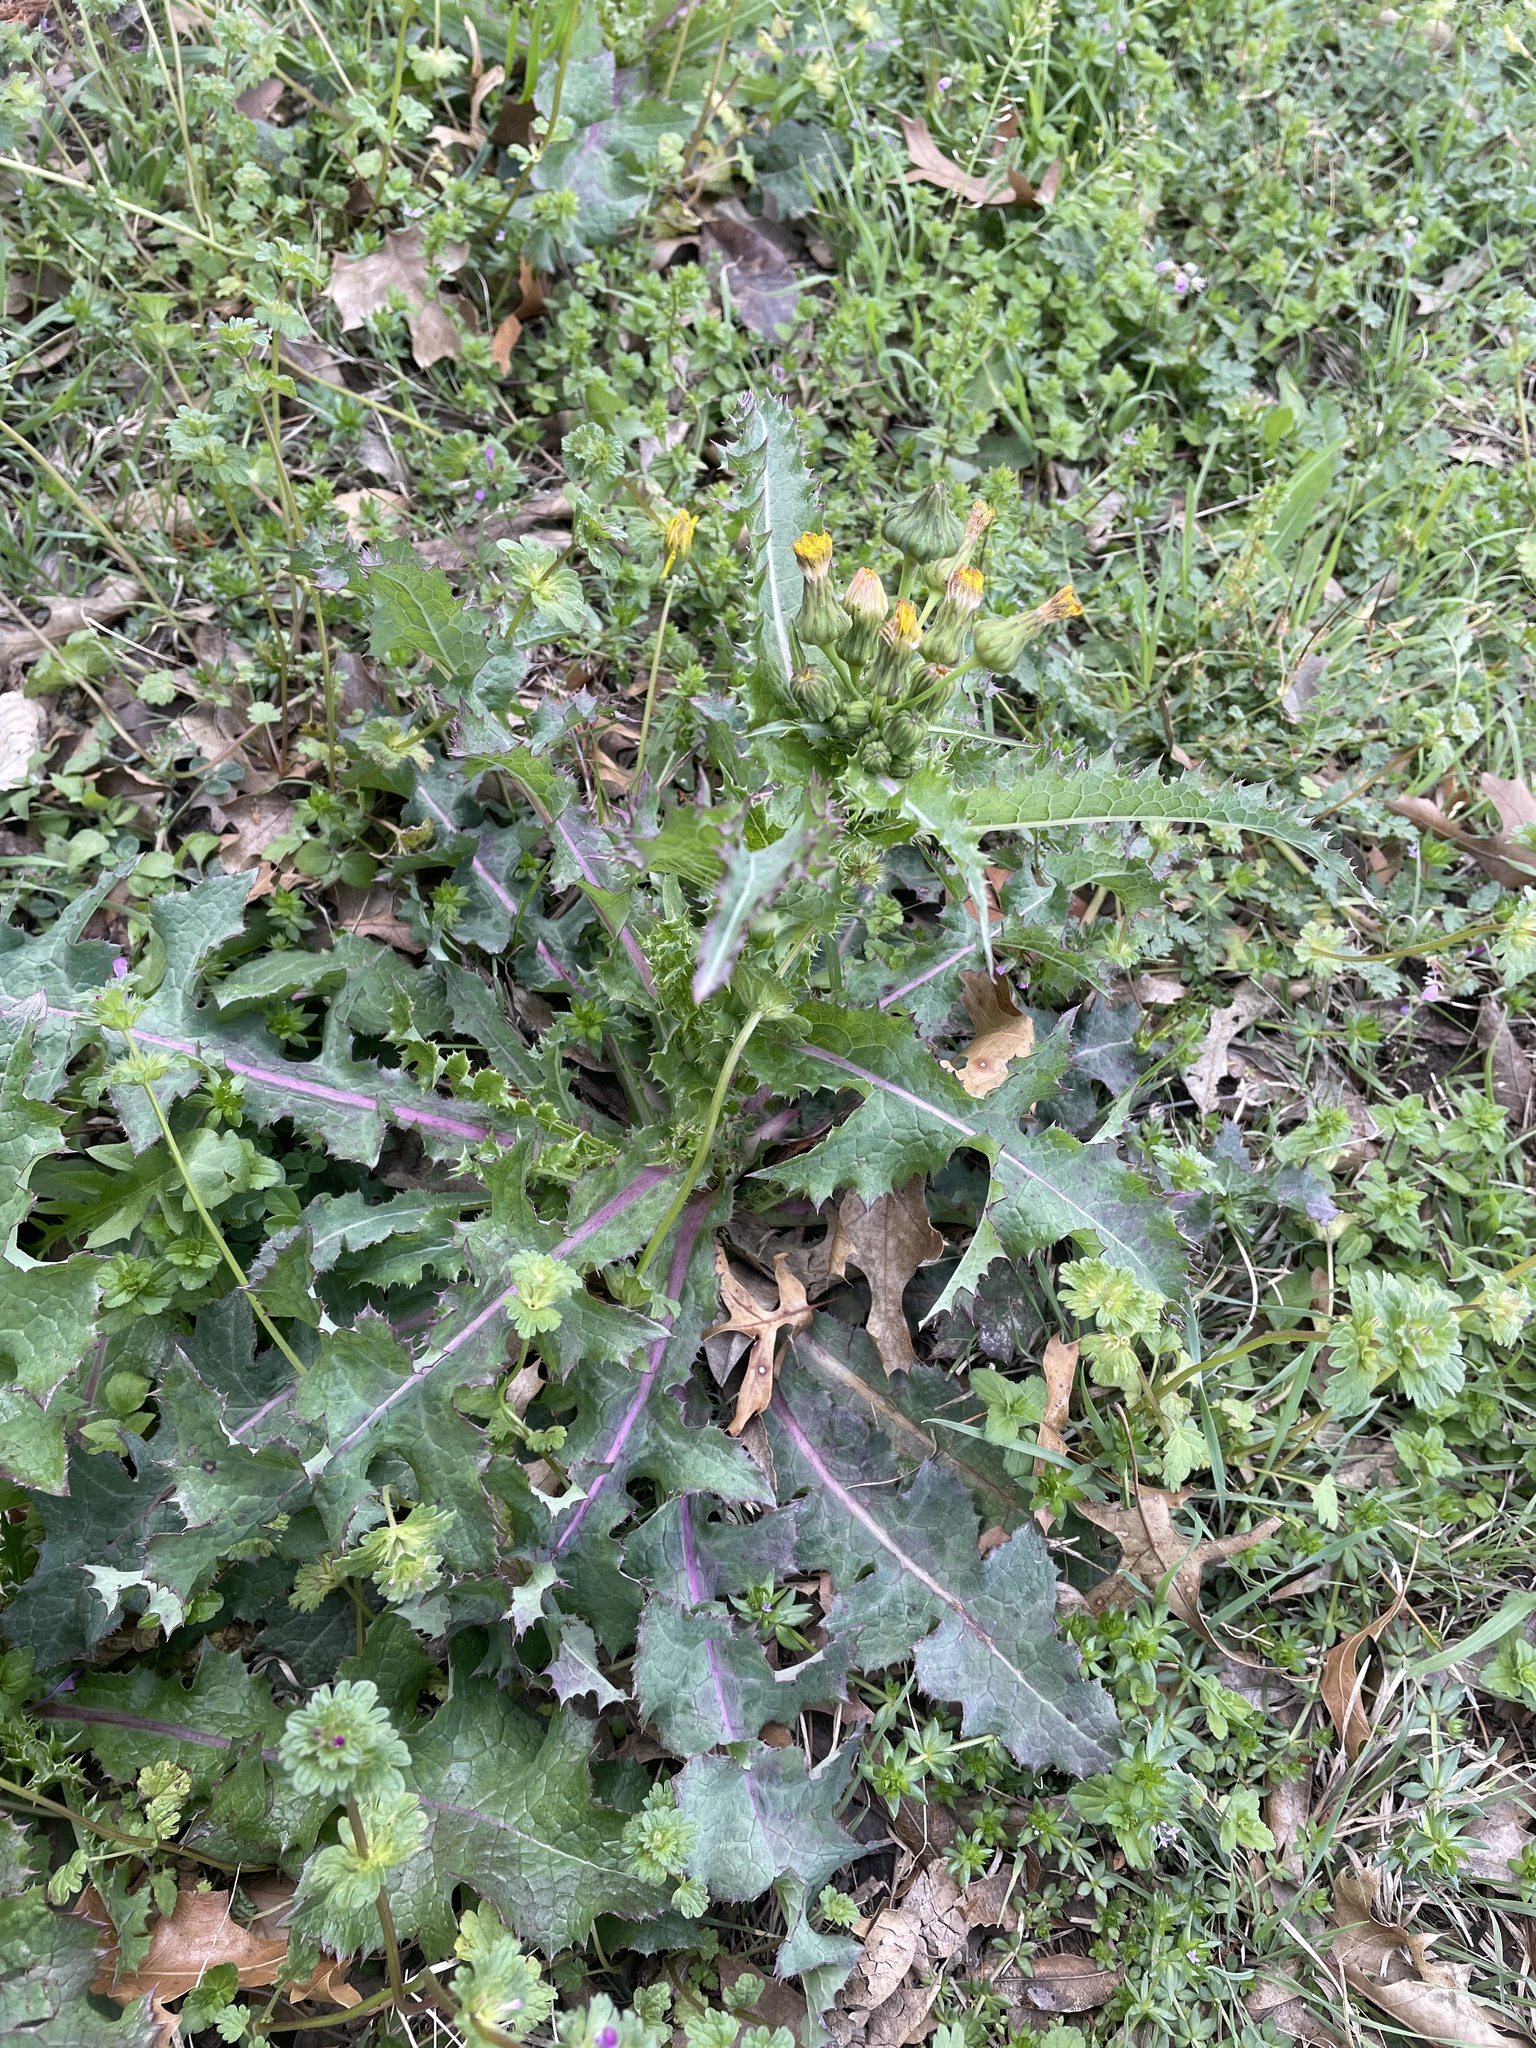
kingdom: Plantae
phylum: Tracheophyta
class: Magnoliopsida
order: Asterales
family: Asteraceae
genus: Sonchus
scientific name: Sonchus asper
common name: Prickly sow-thistle
